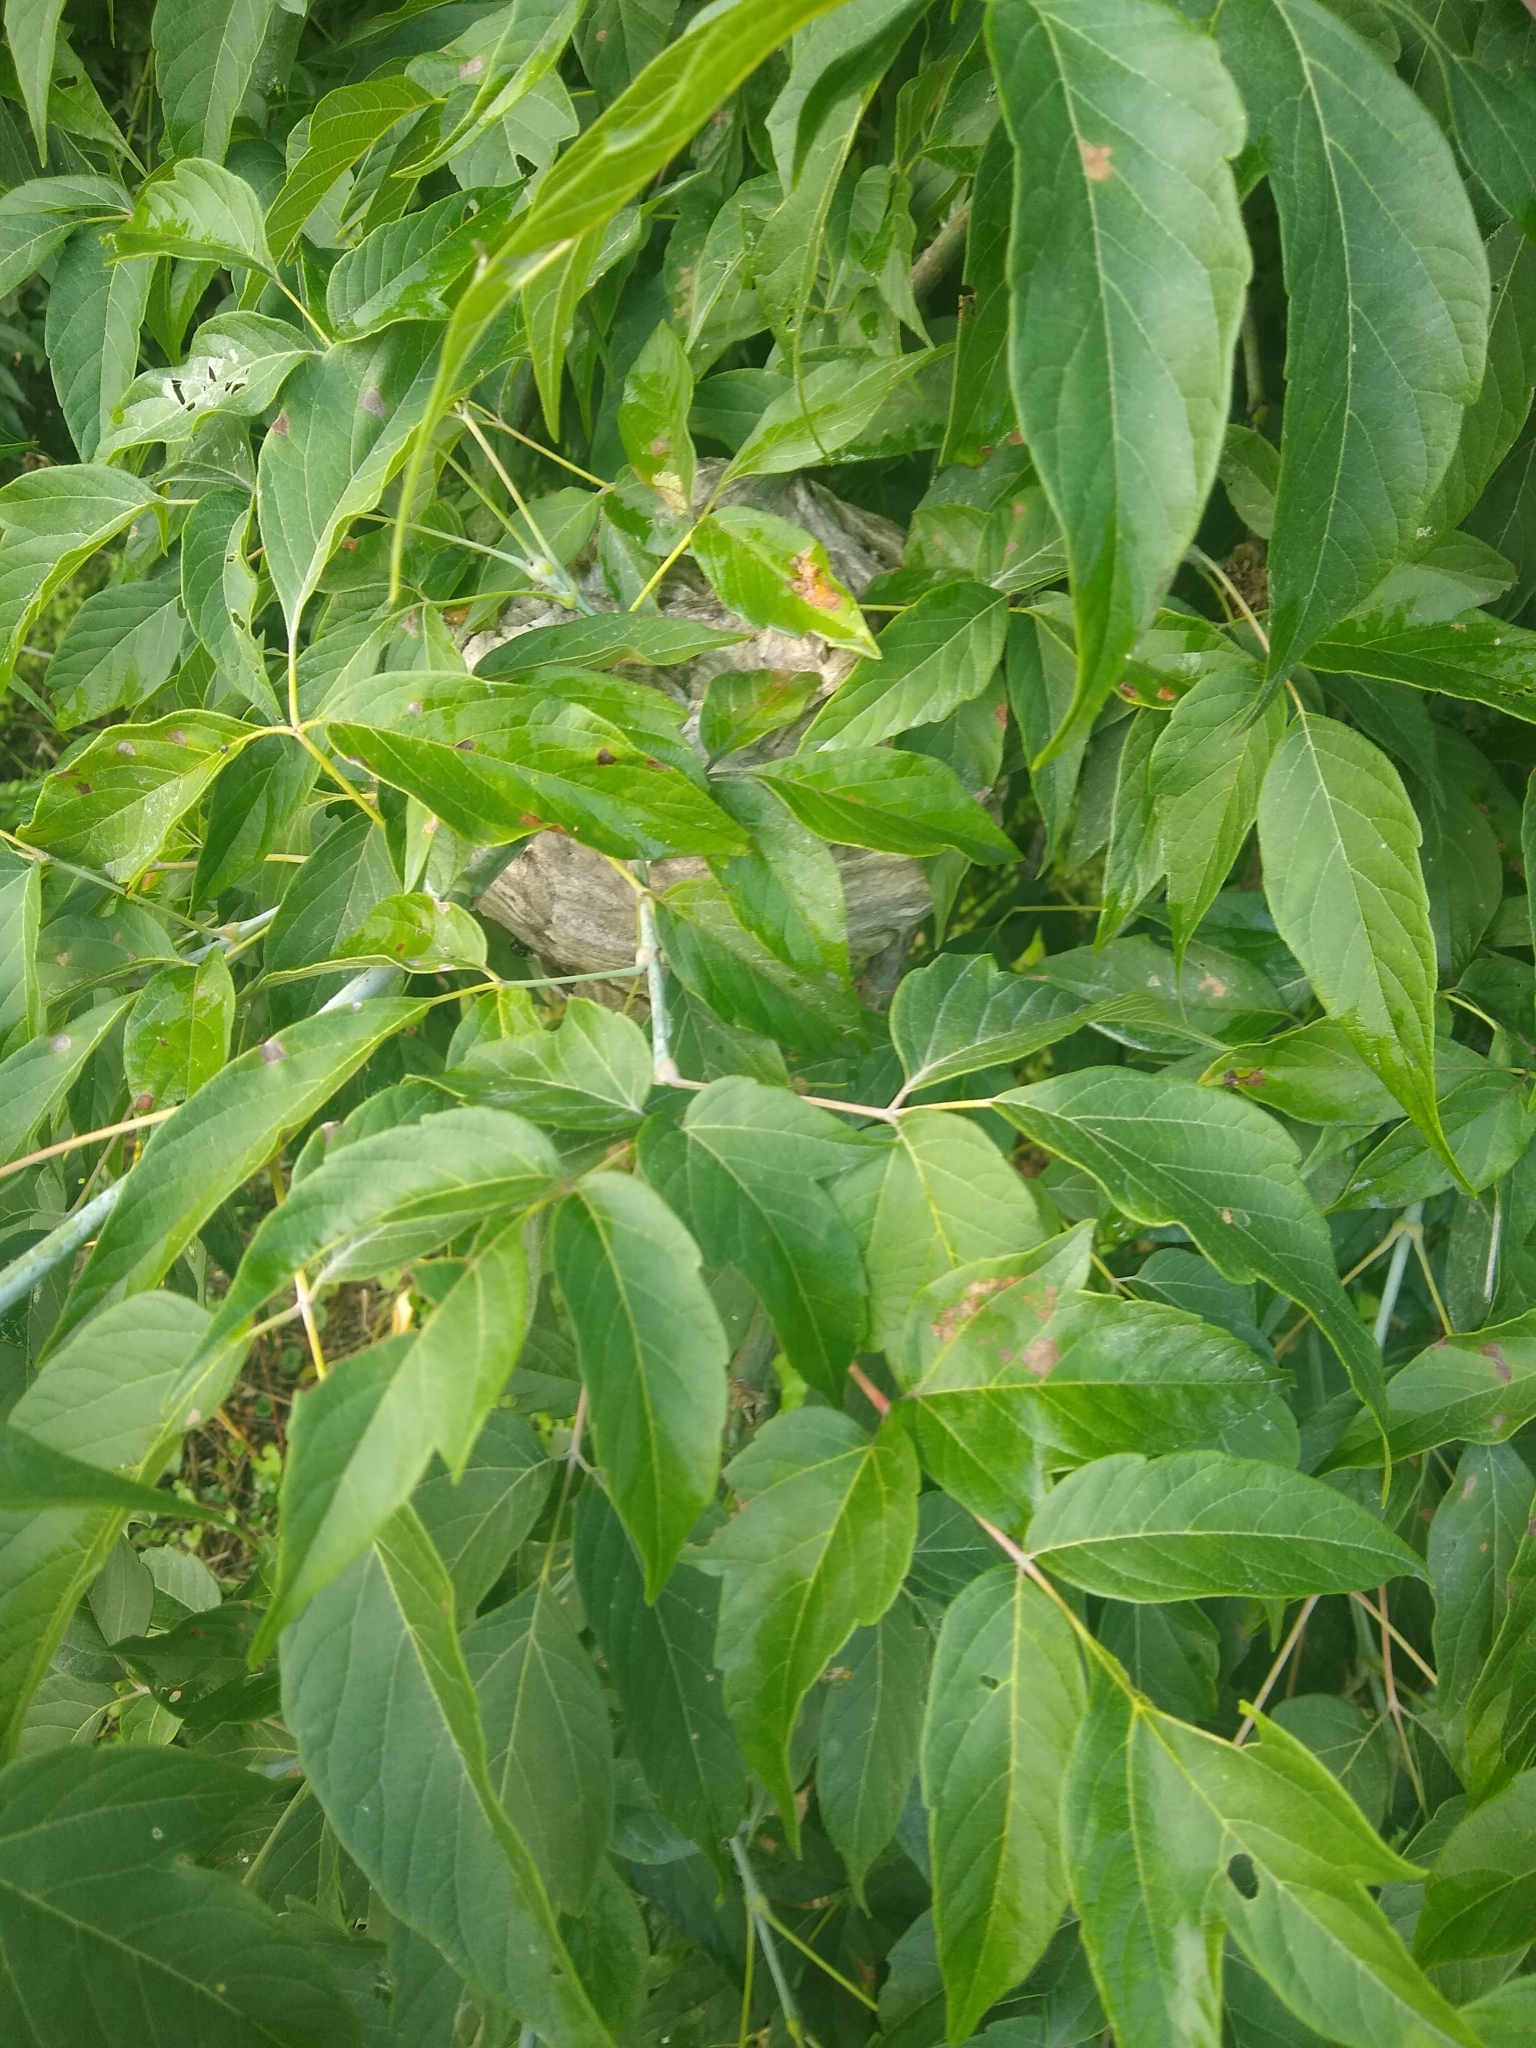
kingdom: Animalia
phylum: Arthropoda
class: Insecta
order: Hymenoptera
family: Vespidae
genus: Dolichovespula
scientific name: Dolichovespula maculata
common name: Bald-faced hornet
